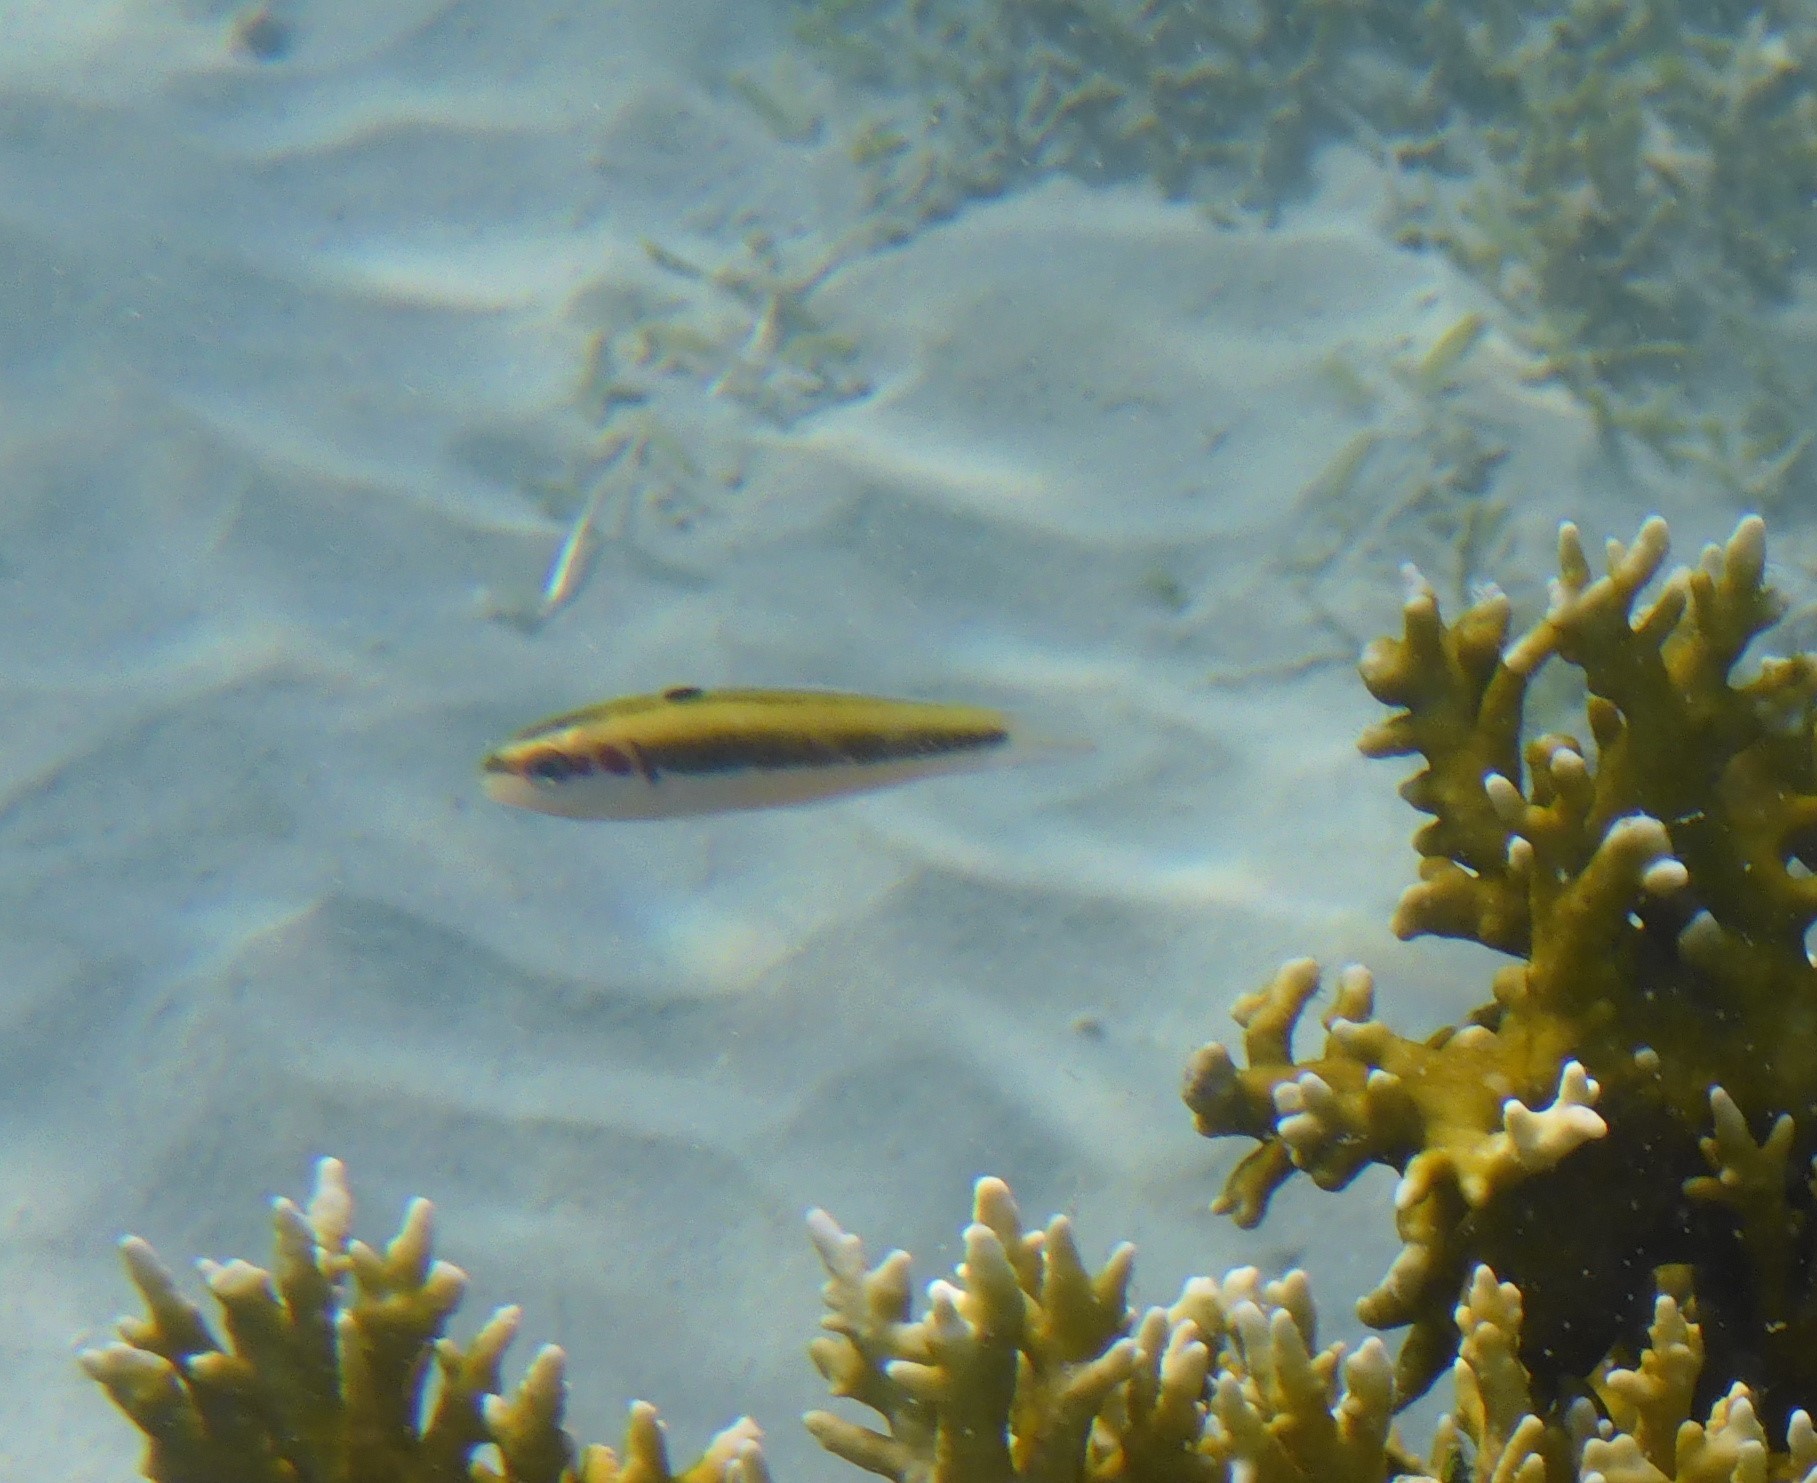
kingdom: Animalia
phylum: Chordata
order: Perciformes
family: Labridae
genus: Thalassoma
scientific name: Thalassoma bifasciatum
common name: Bluehead wrasse
